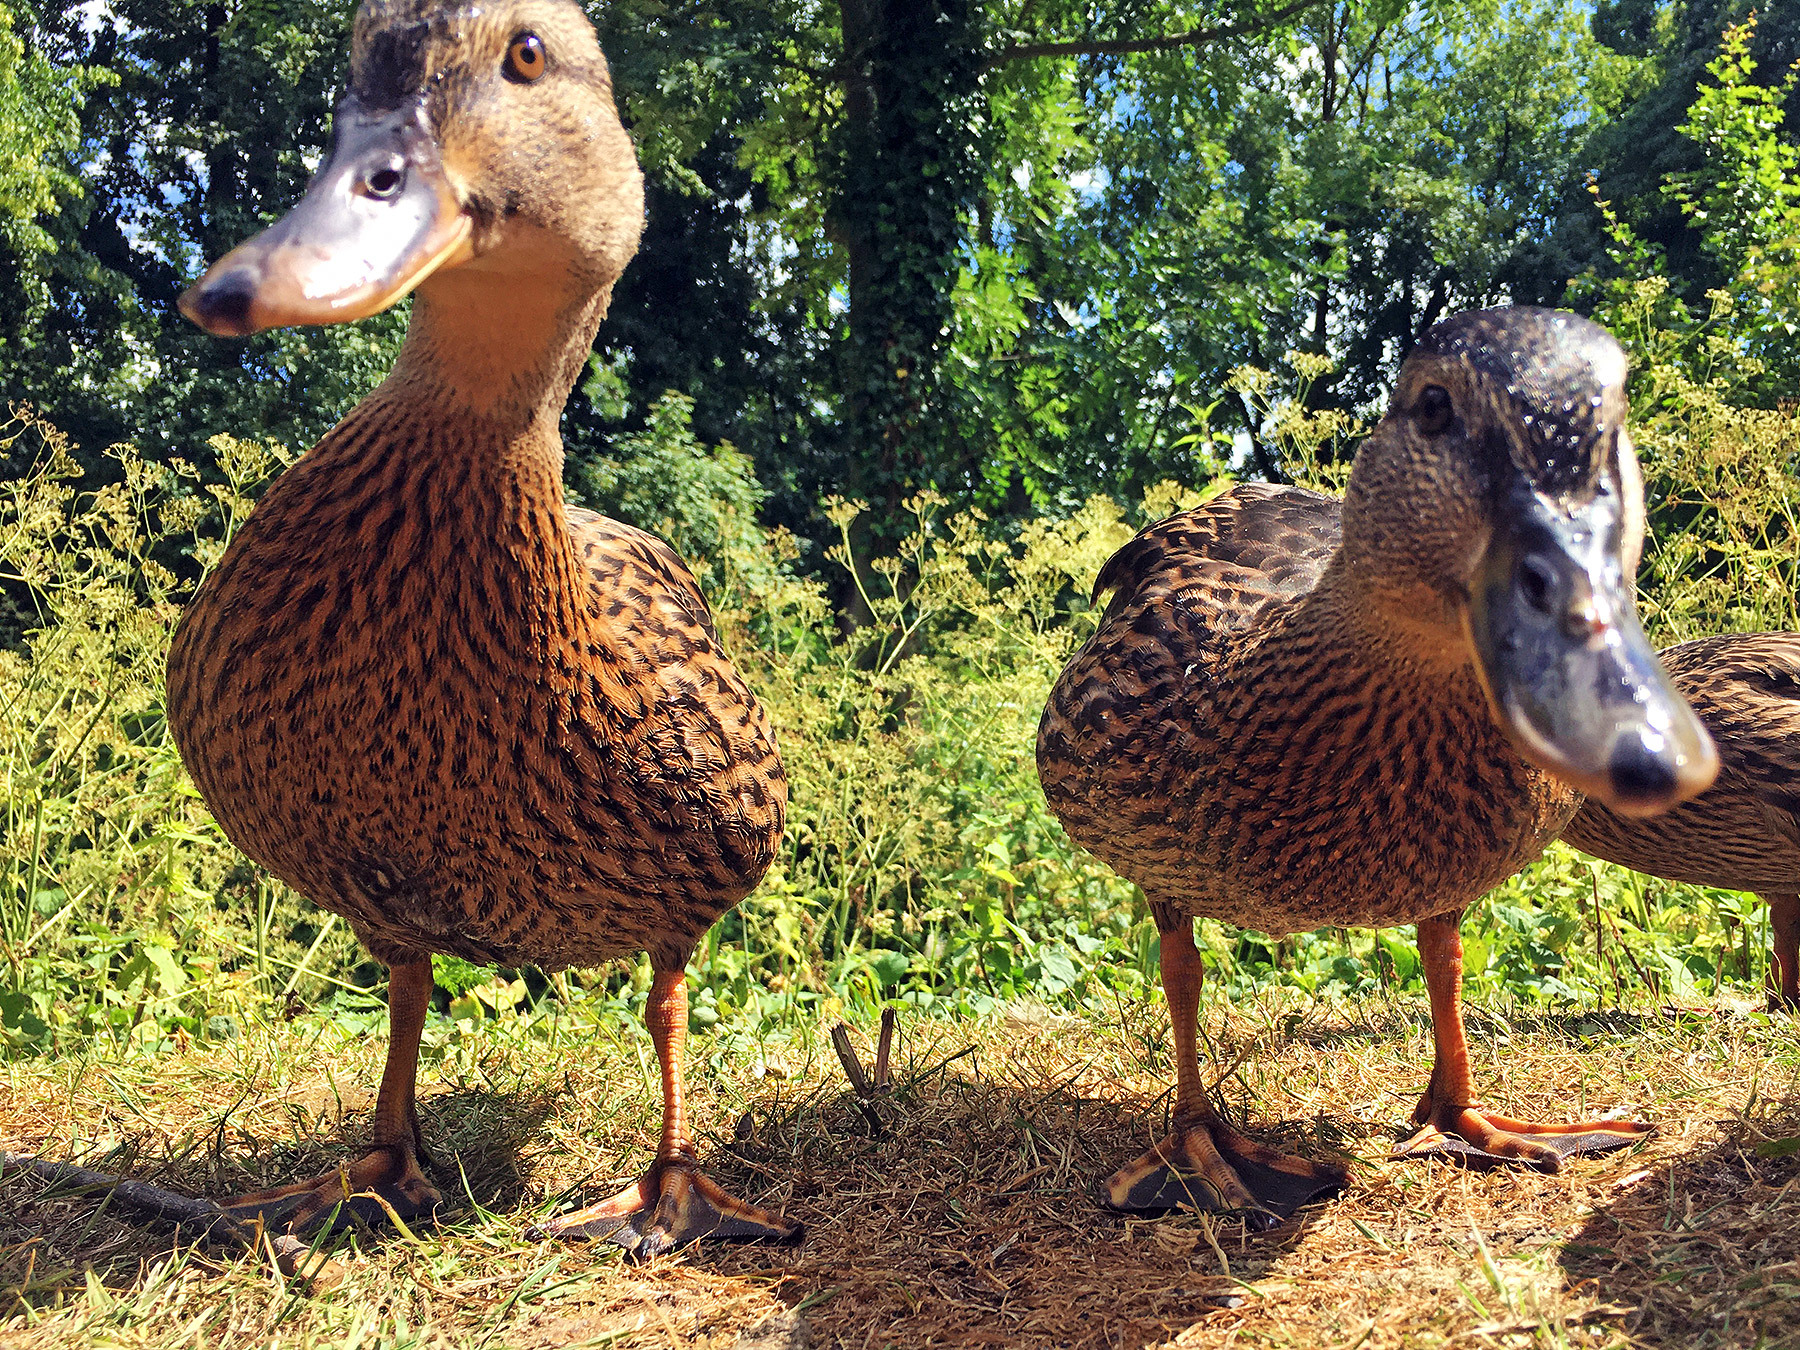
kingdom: Animalia
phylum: Chordata
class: Aves
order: Anseriformes
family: Anatidae
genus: Anas
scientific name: Anas platyrhynchos
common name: Mallard
